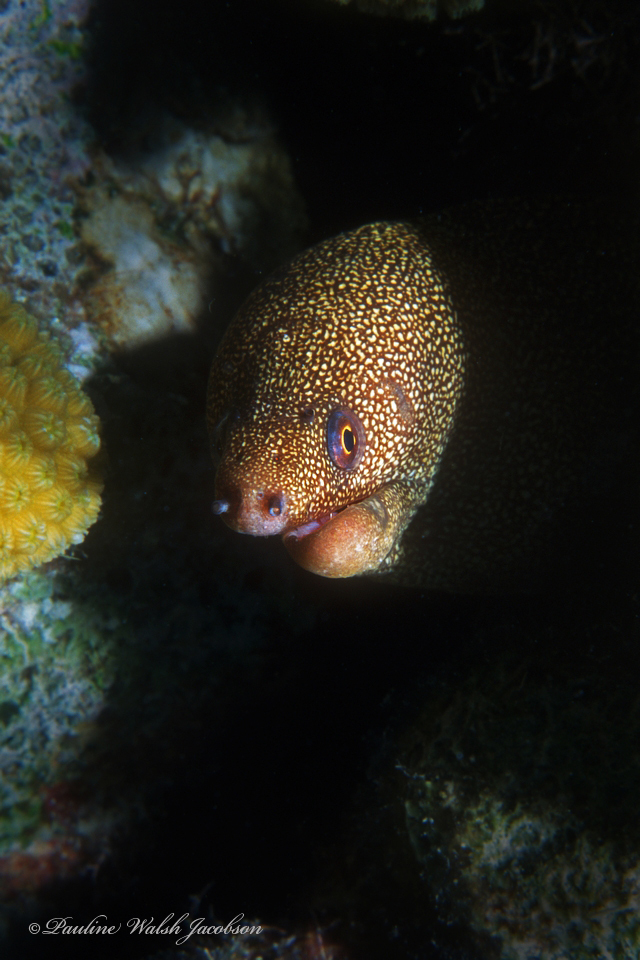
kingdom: Animalia
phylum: Chordata
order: Anguilliformes
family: Muraenidae
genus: Gymnothorax
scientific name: Gymnothorax miliaris
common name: Goldentail moray
